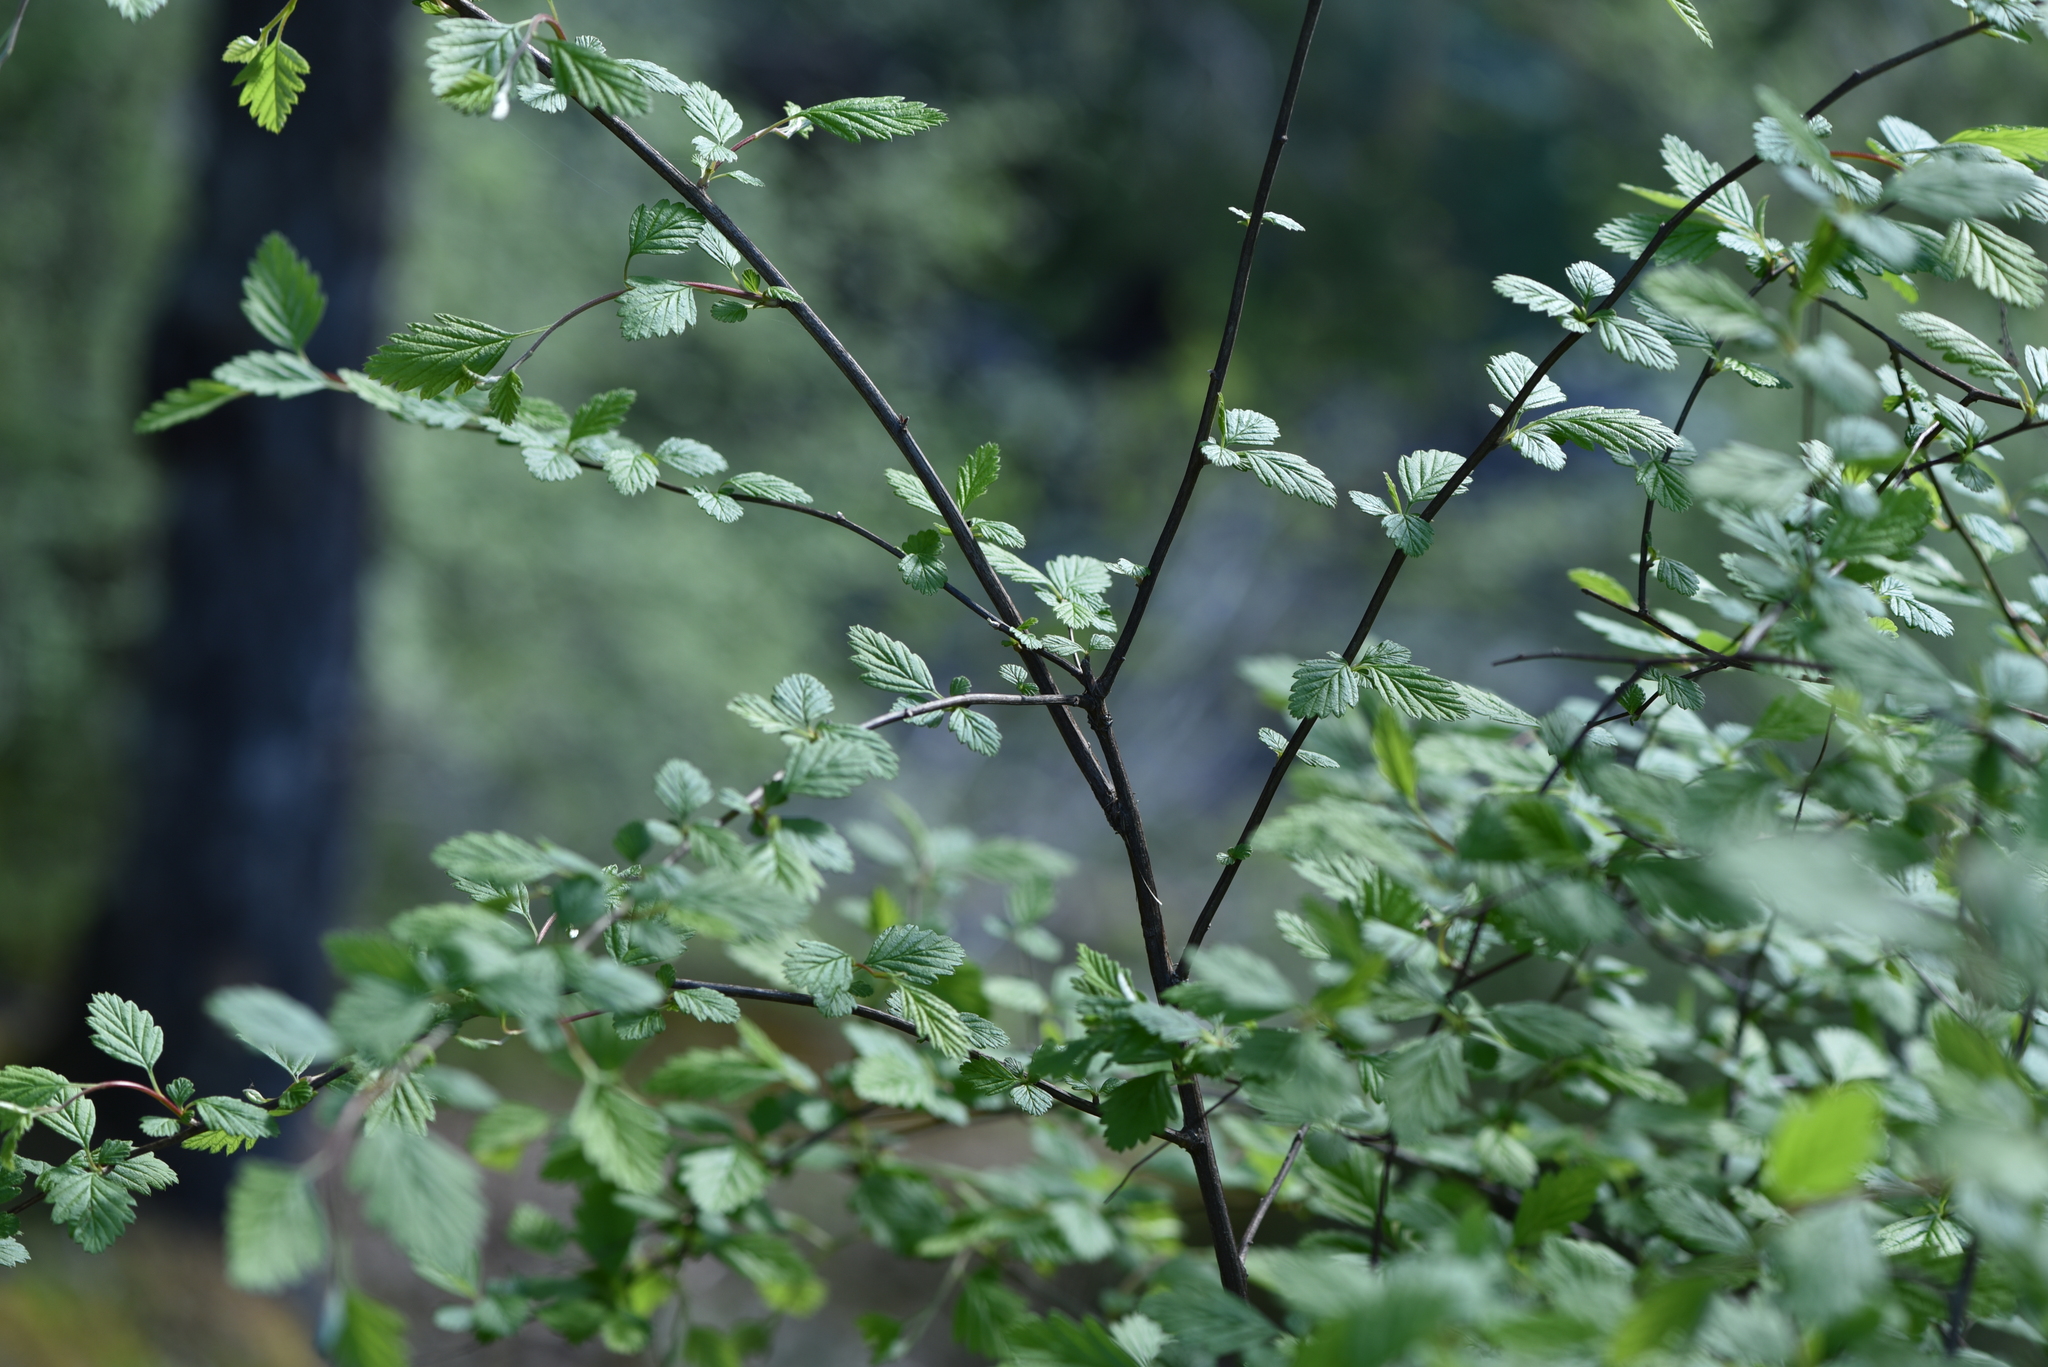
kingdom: Plantae
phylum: Tracheophyta
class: Magnoliopsida
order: Rosales
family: Rosaceae
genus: Holodiscus
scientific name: Holodiscus discolor
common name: Oceanspray
